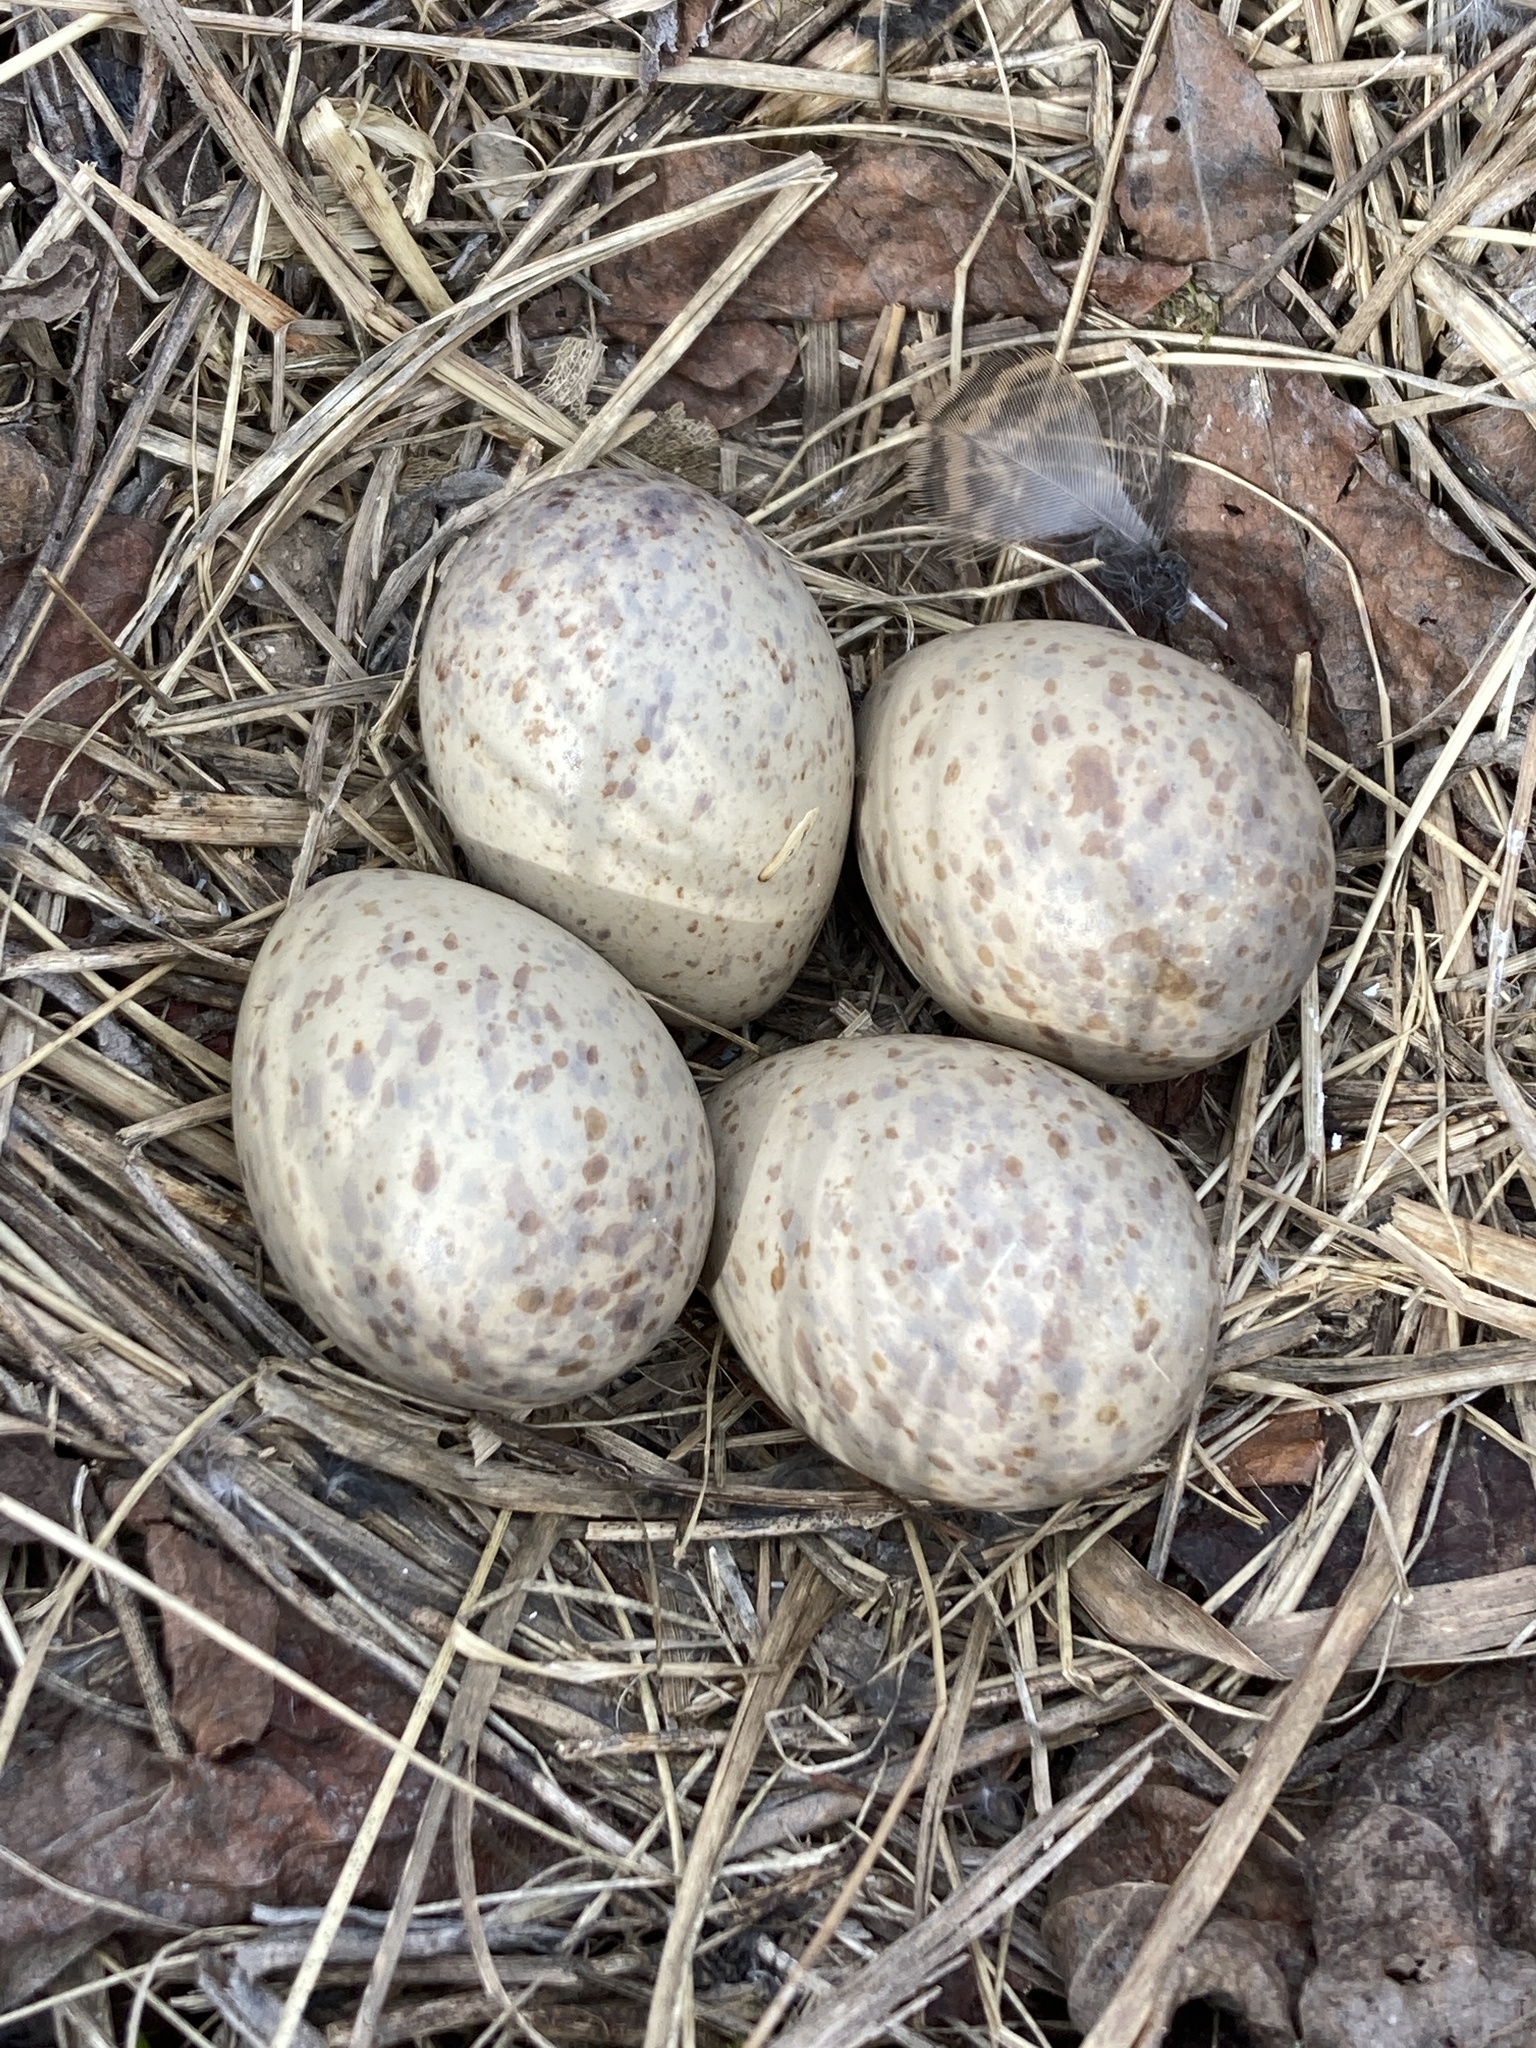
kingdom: Animalia
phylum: Chordata
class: Aves
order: Charadriiformes
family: Scolopacidae
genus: Scolopax
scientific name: Scolopax minor
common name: American woodcock
